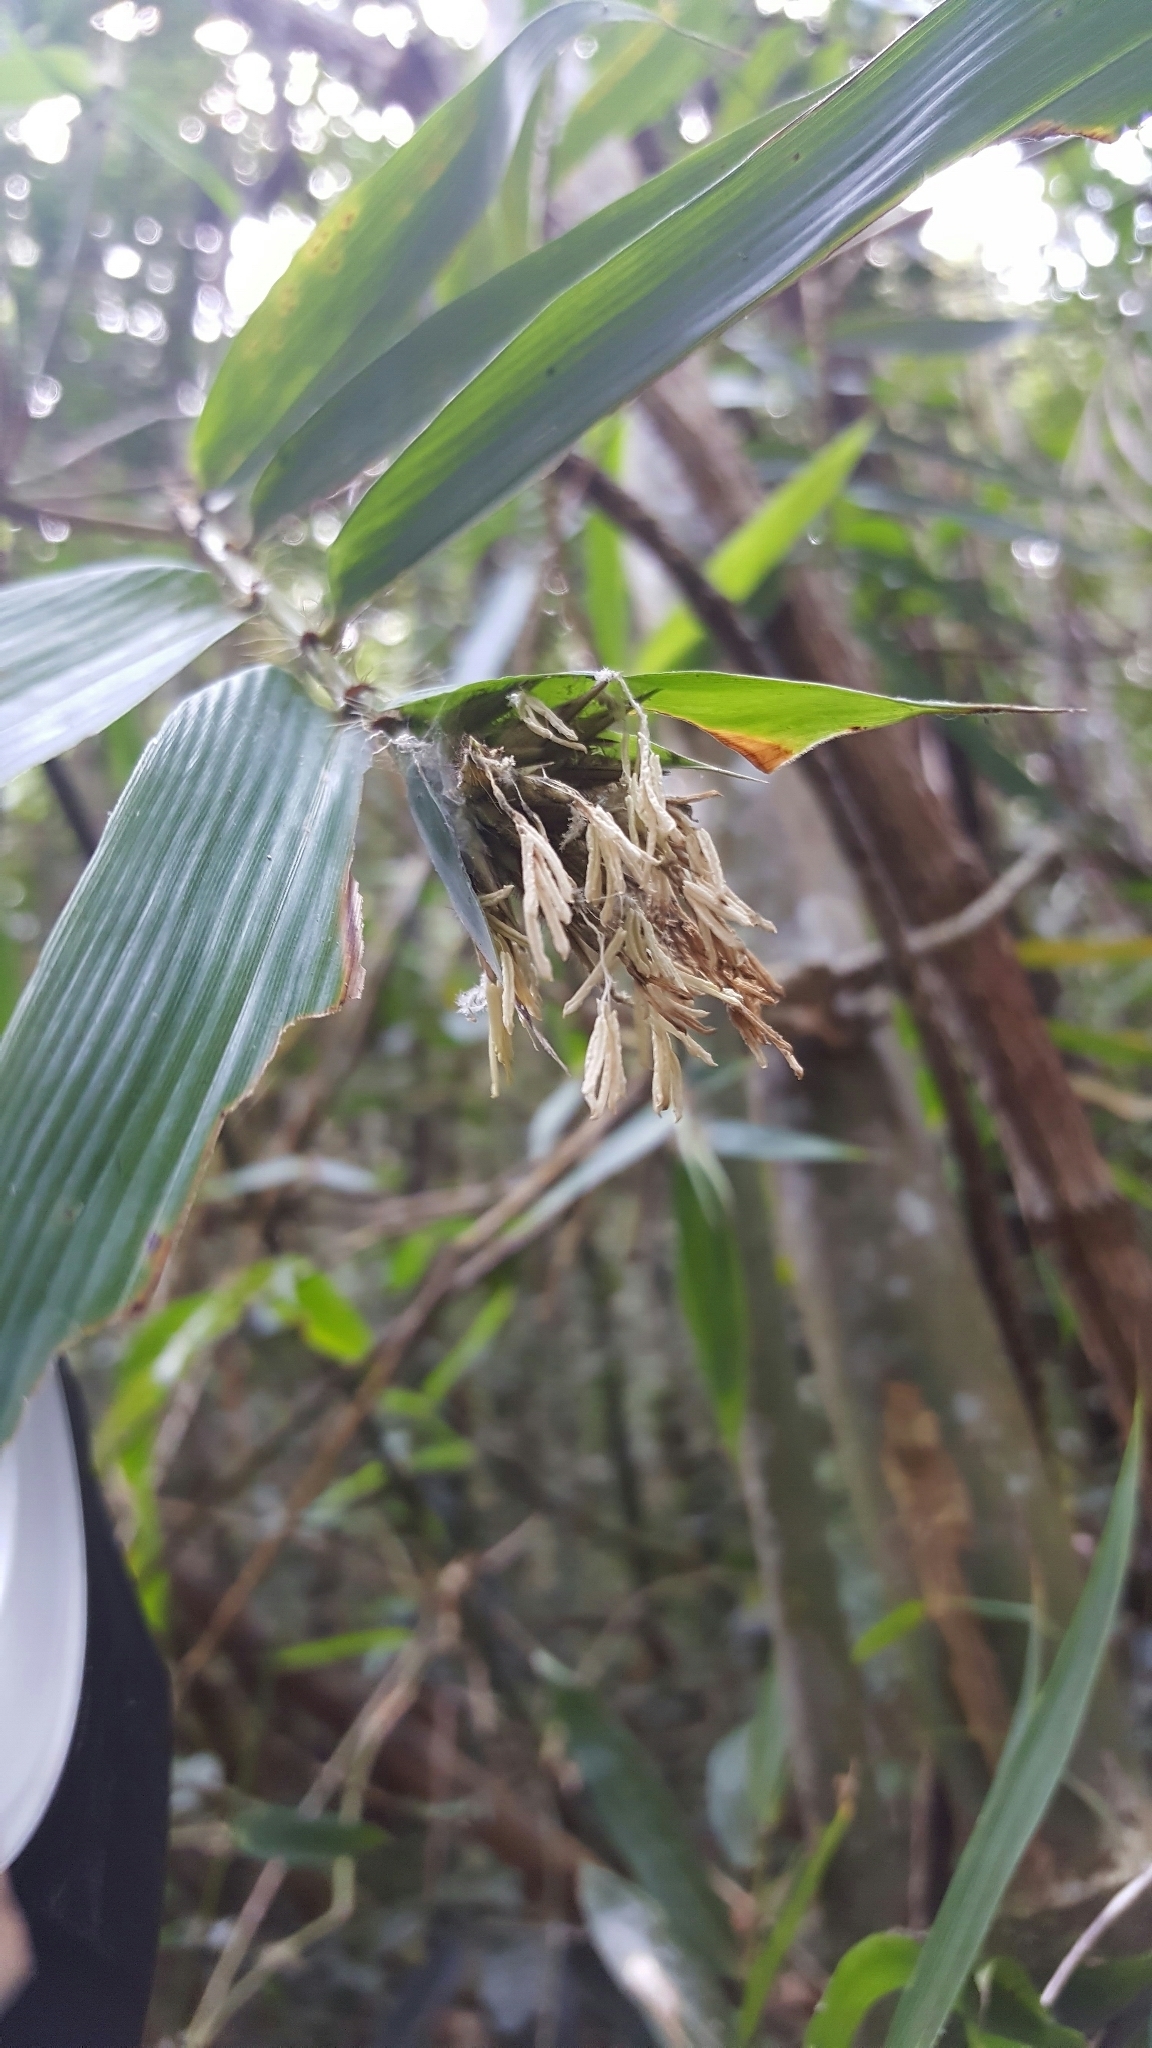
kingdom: Plantae
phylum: Tracheophyta
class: Liliopsida
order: Poales
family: Poaceae
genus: Cathariostachys
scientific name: Cathariostachys madagascariensis
